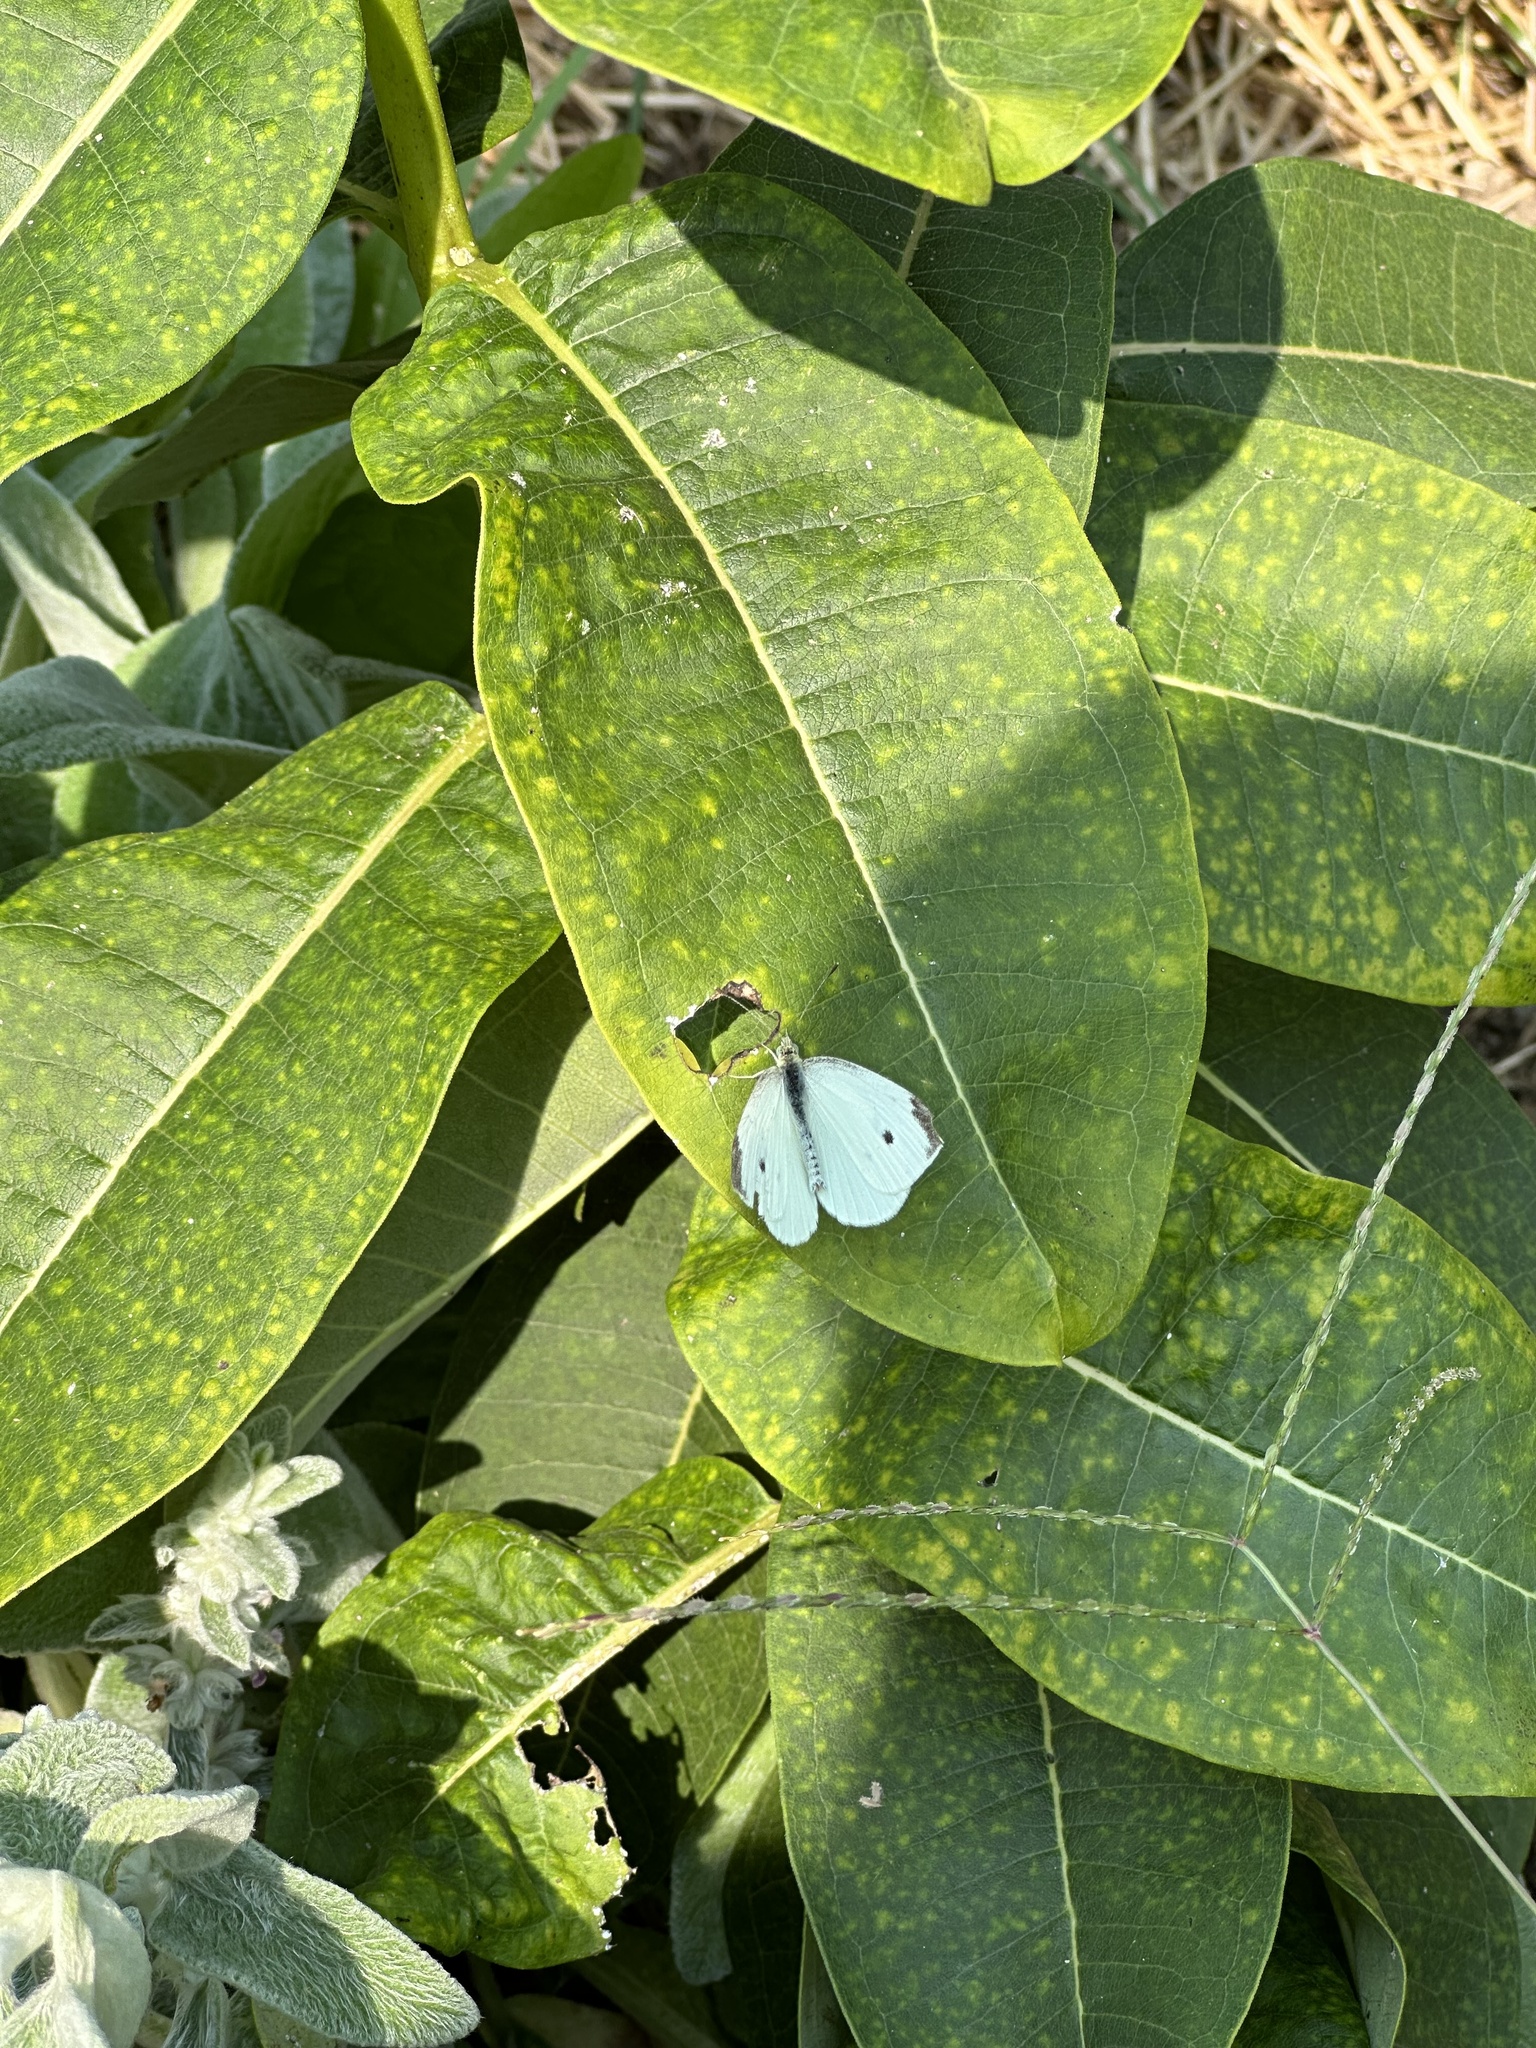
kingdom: Animalia
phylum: Arthropoda
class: Insecta
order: Lepidoptera
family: Pieridae
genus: Pieris
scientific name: Pieris rapae
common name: Small white
